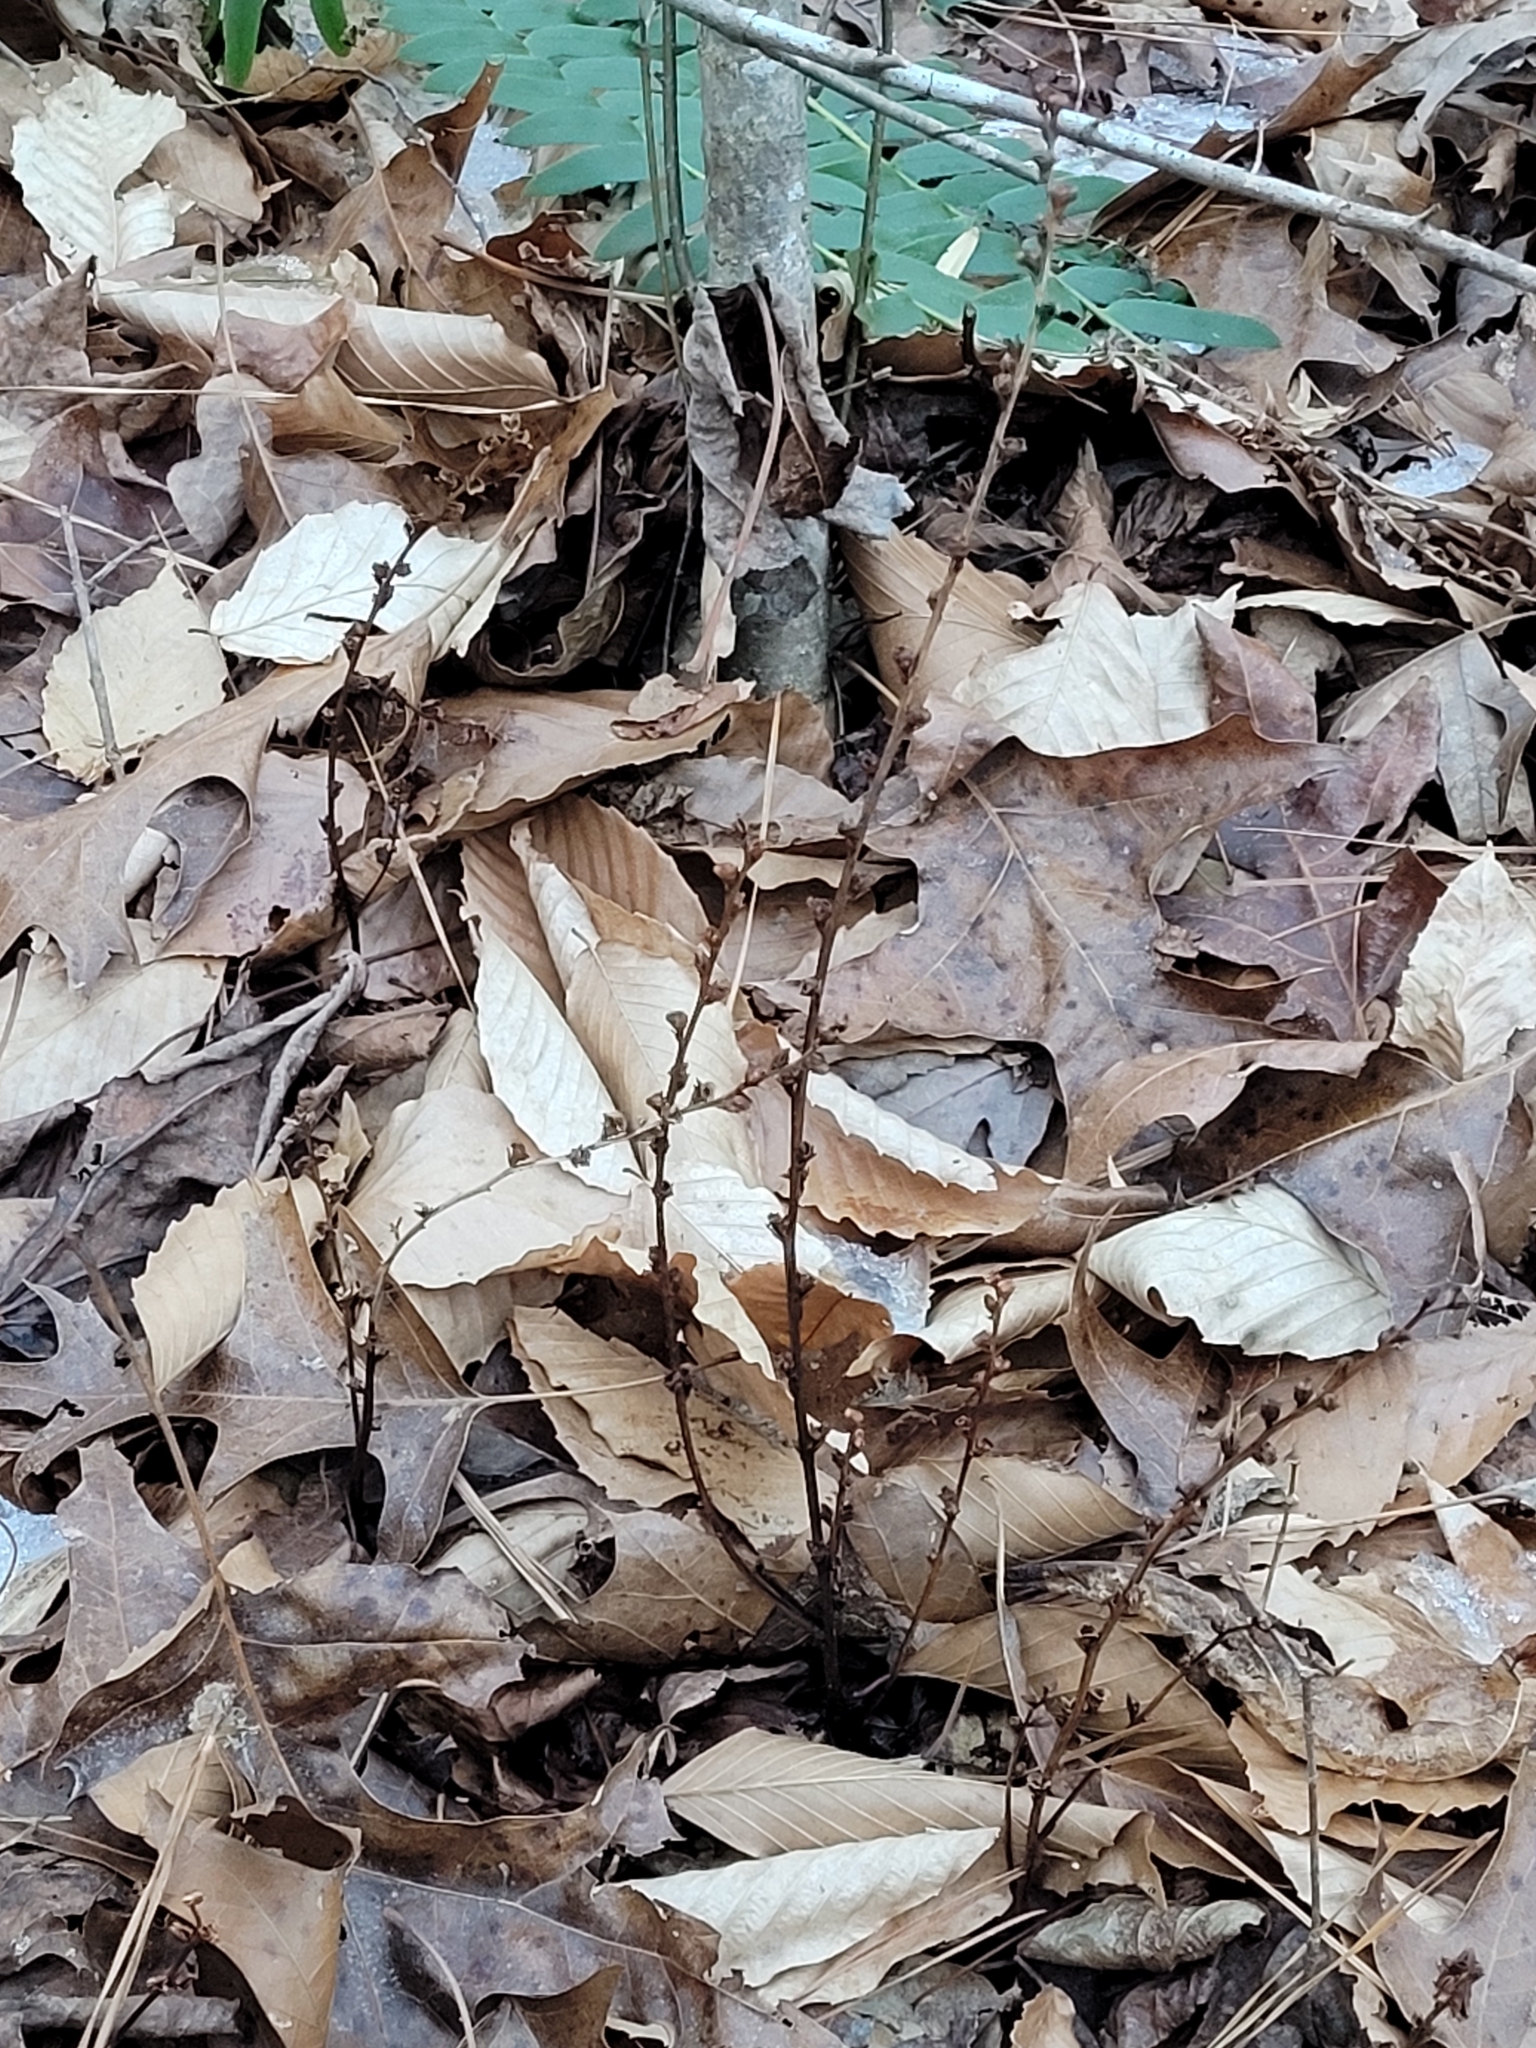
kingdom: Plantae
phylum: Tracheophyta
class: Magnoliopsida
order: Lamiales
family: Orobanchaceae
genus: Epifagus
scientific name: Epifagus virginiana
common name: Beechdrops
